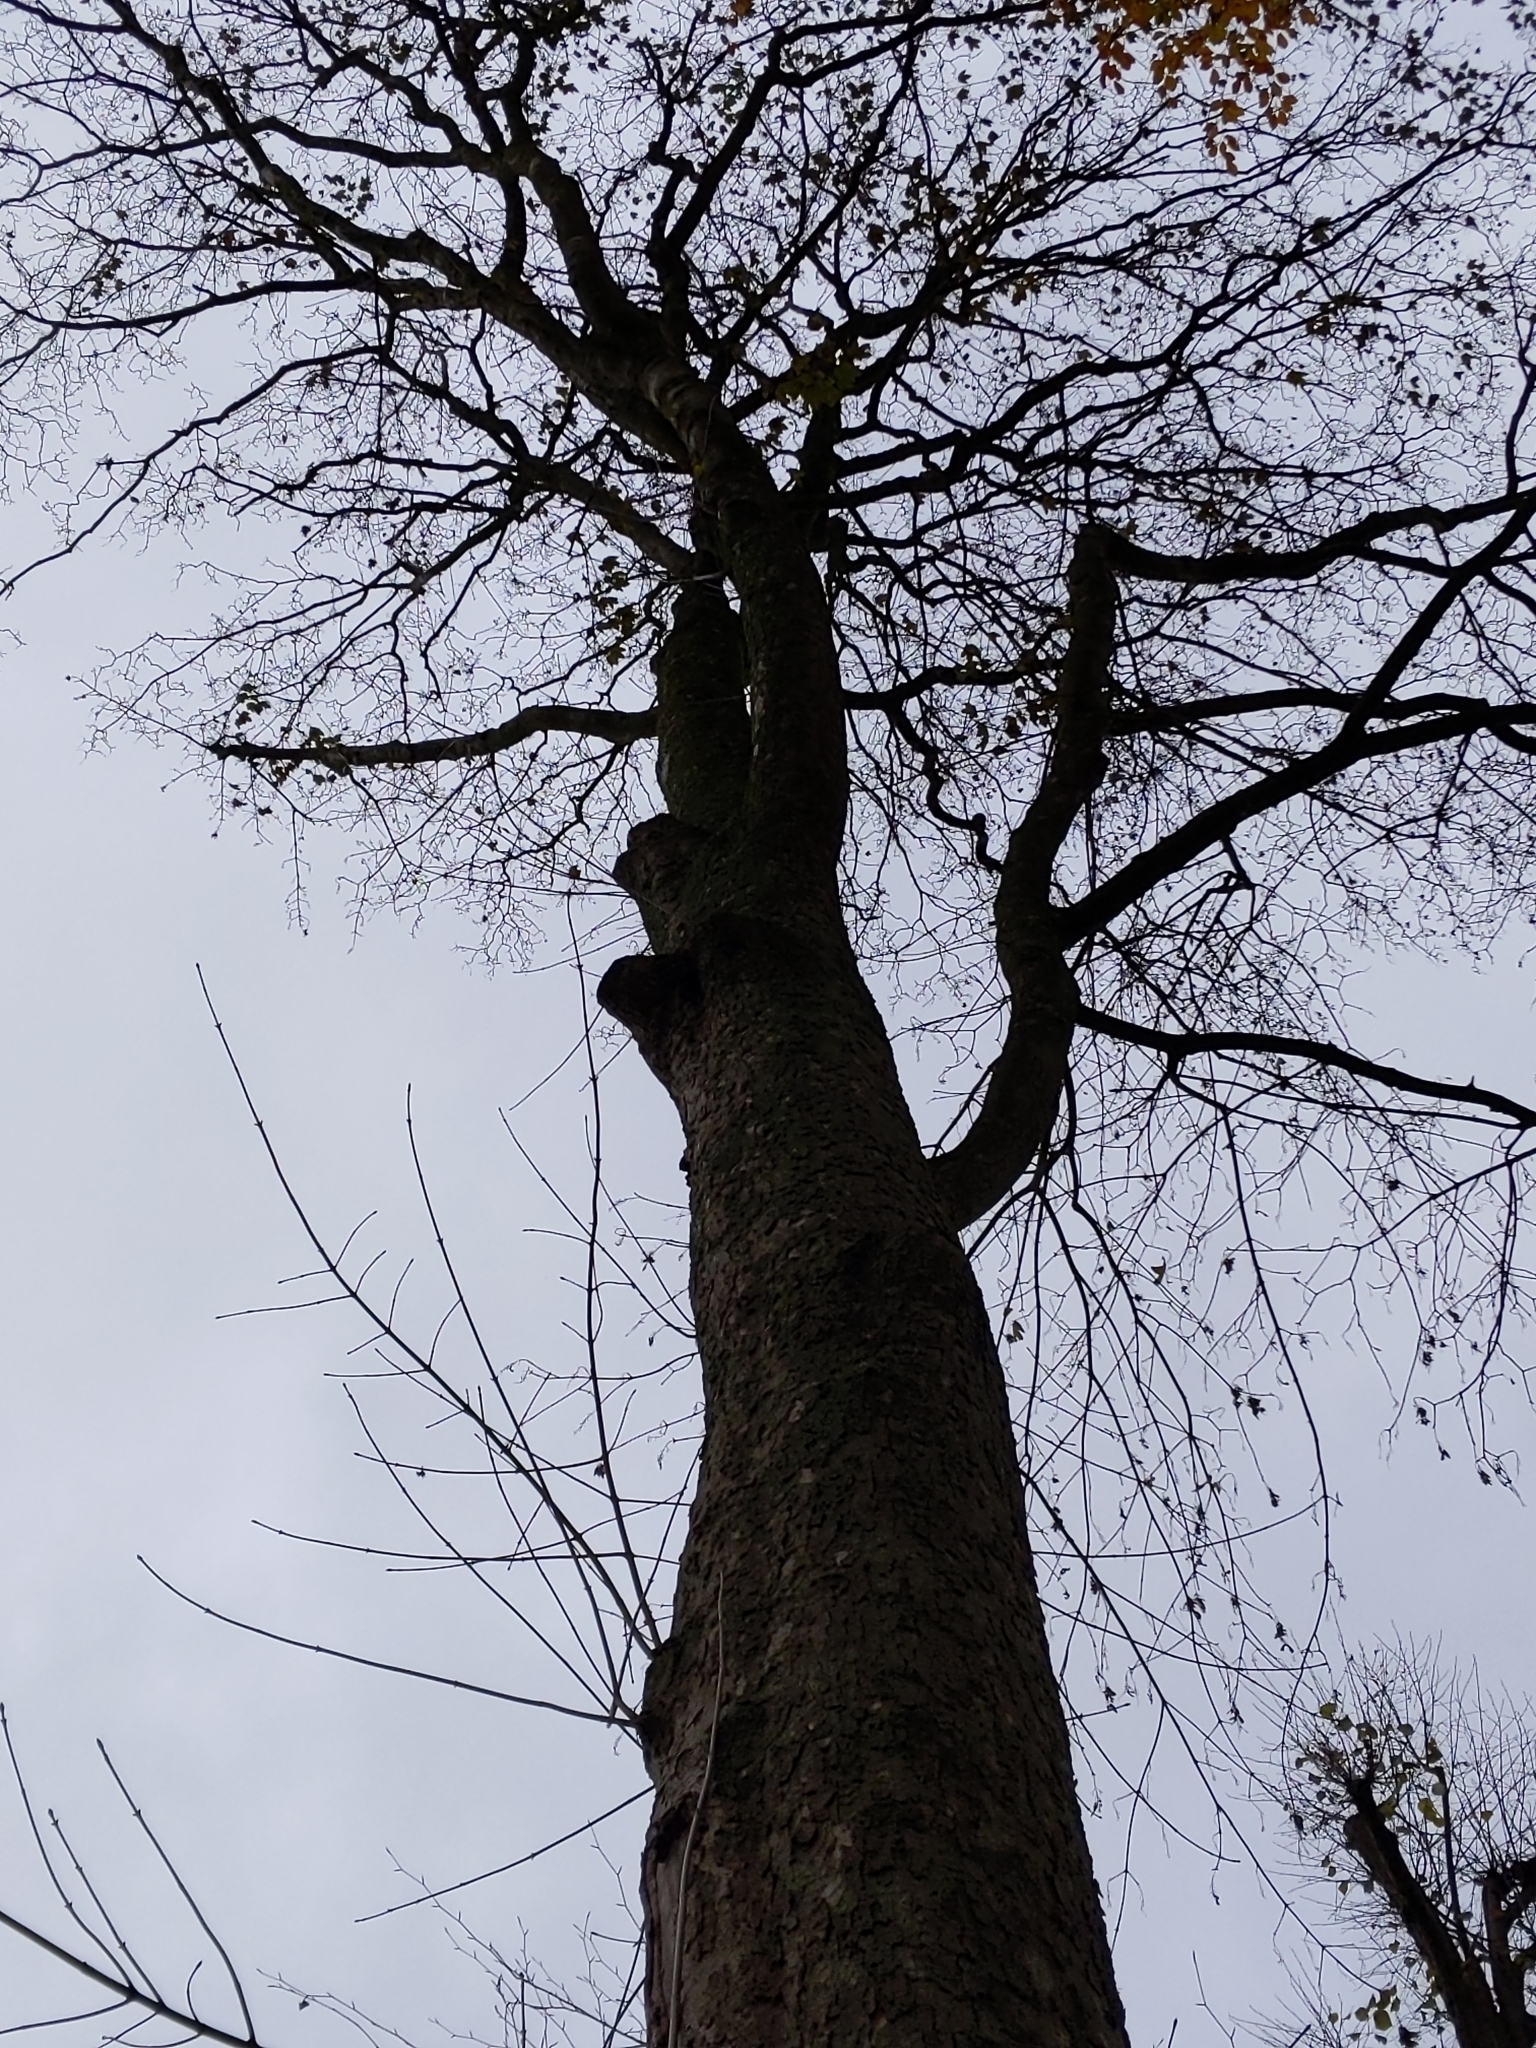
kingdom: Fungi
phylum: Basidiomycota
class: Agaricomycetes
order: Agaricales
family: Lycoperdaceae
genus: Apioperdon
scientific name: Apioperdon pyriforme
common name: Pear-shaped puffball
